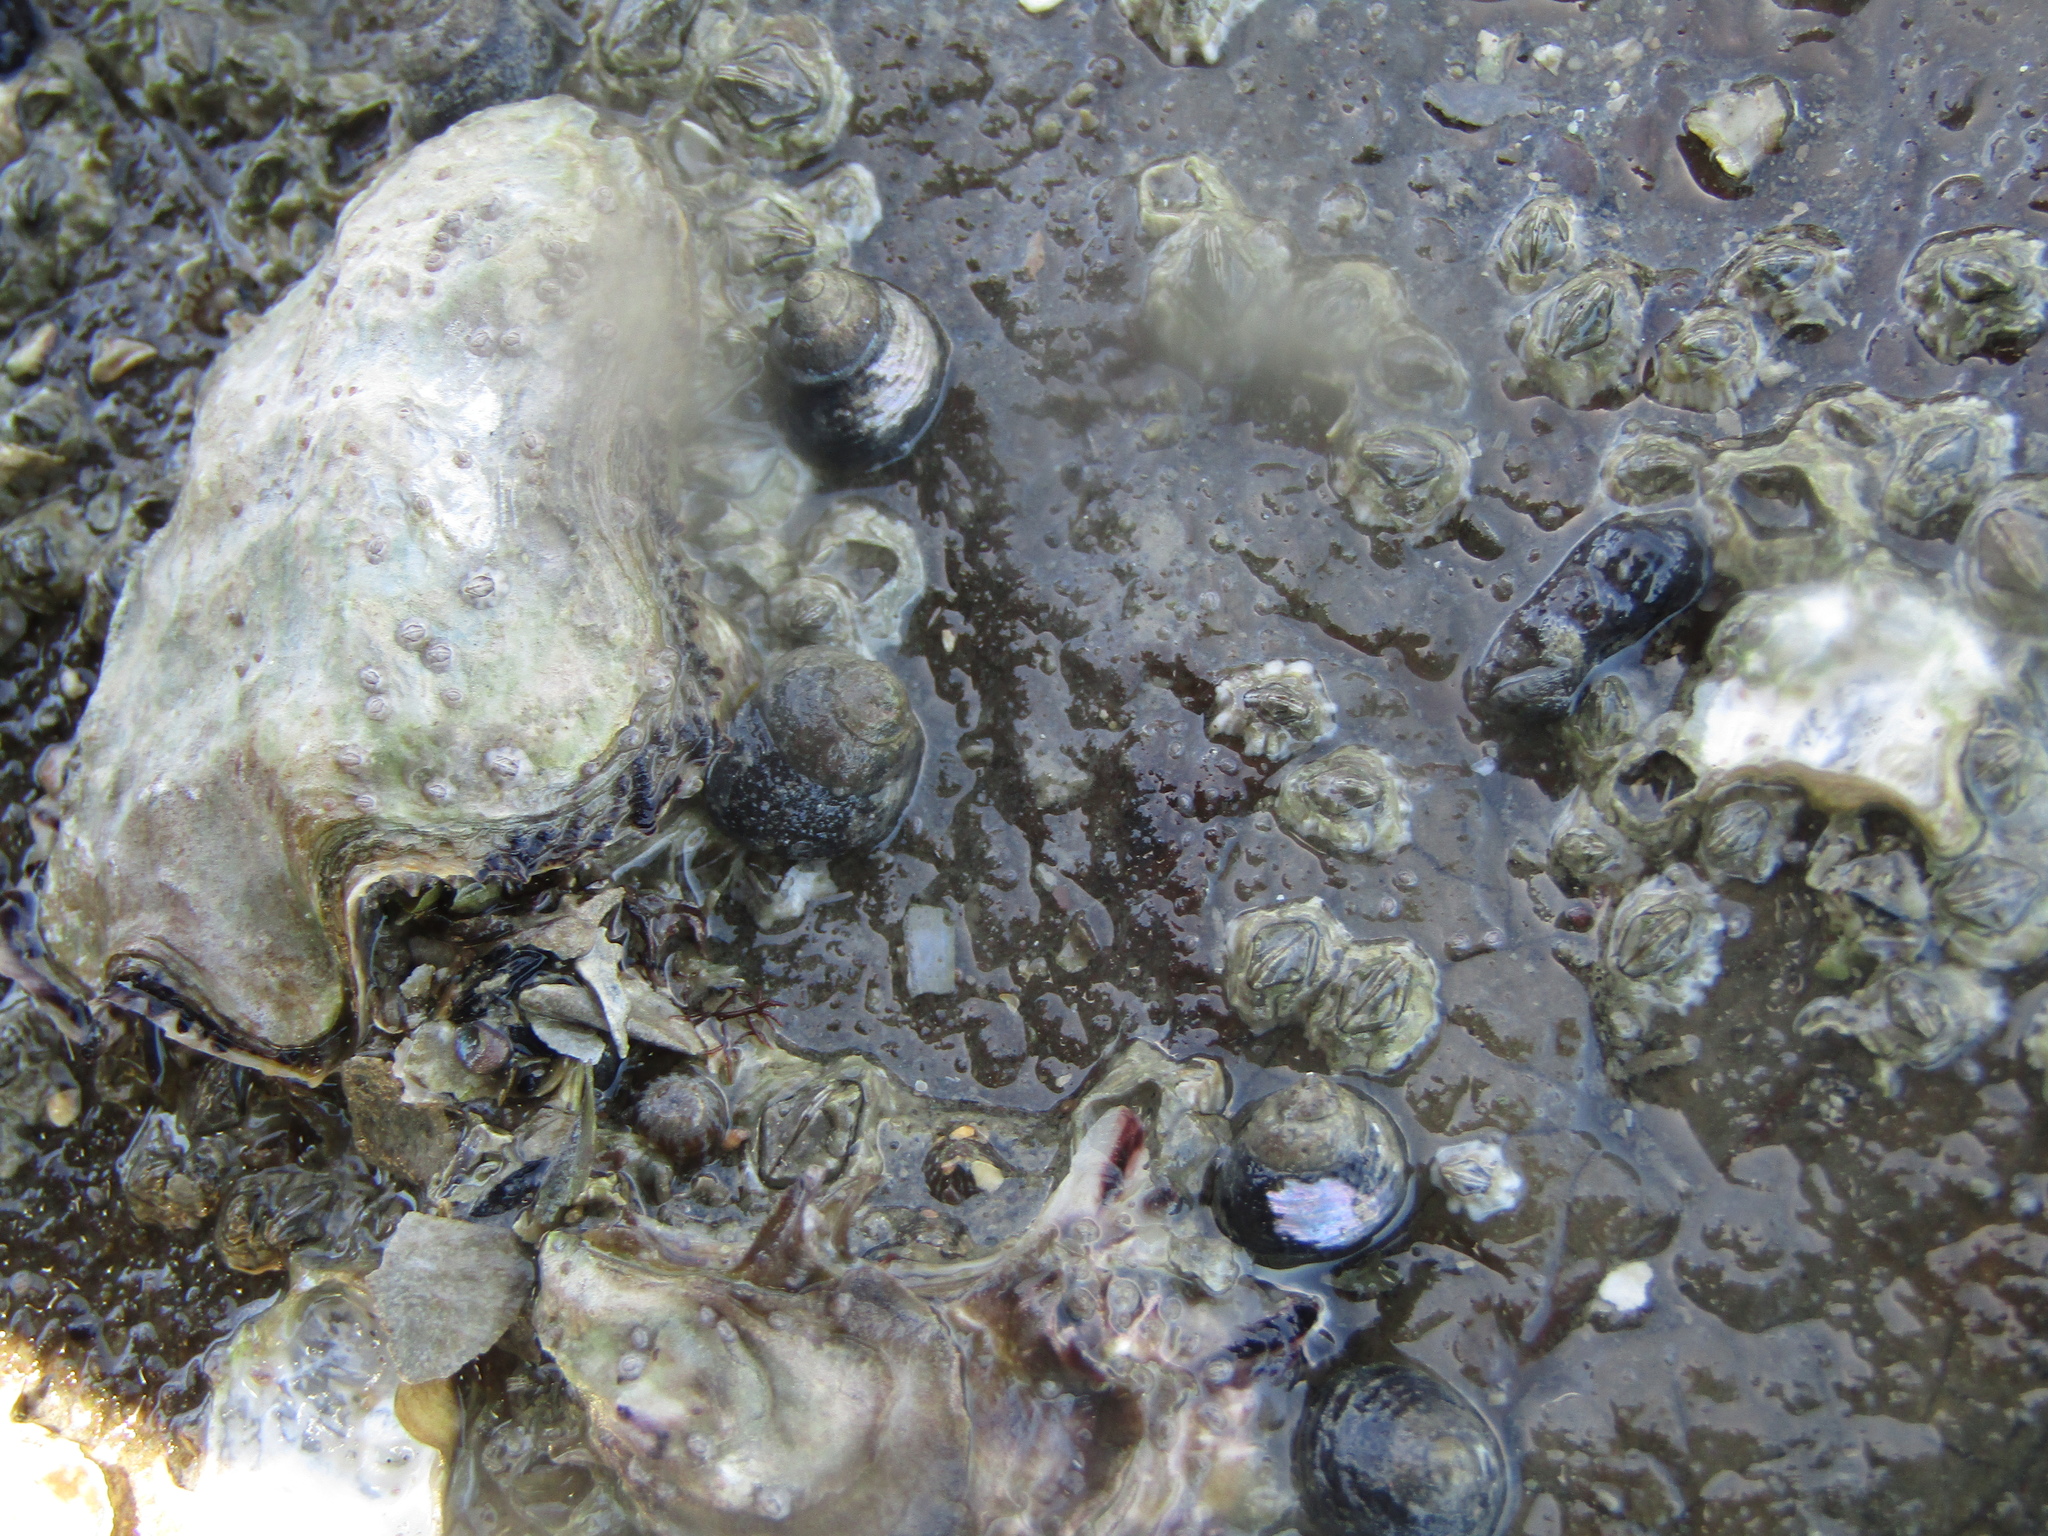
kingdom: Animalia
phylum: Mollusca
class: Gastropoda
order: Trochida
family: Trochidae
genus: Micrelenchus
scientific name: Micrelenchus huttonii
